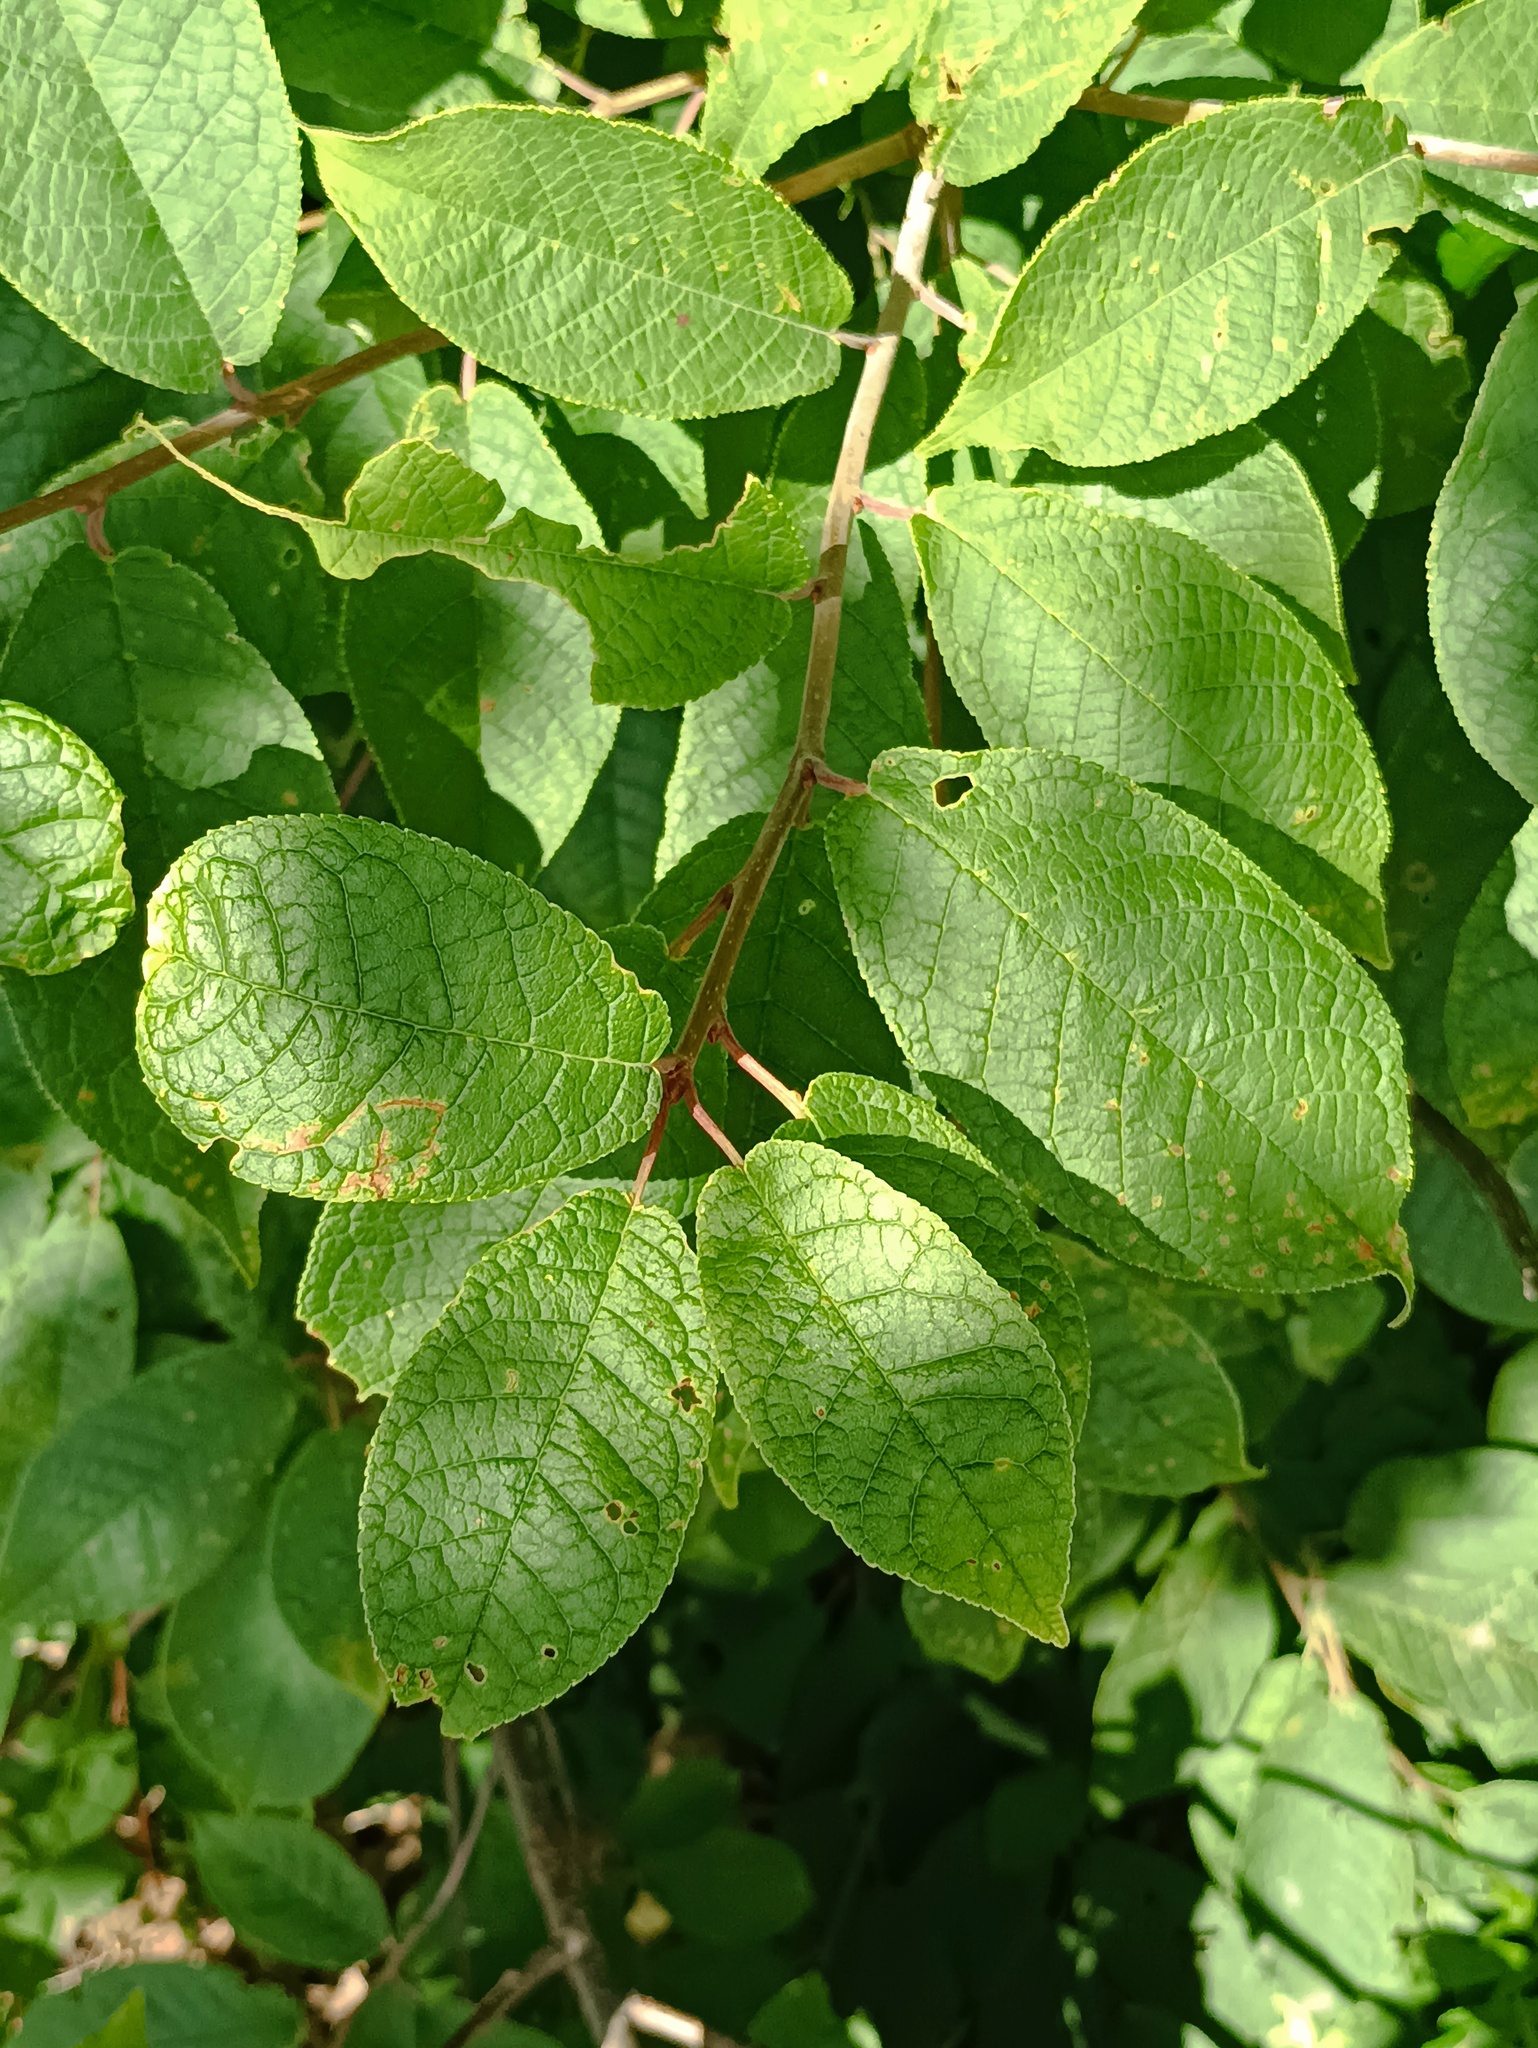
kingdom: Plantae
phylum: Tracheophyta
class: Magnoliopsida
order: Rosales
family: Rosaceae
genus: Prunus
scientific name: Prunus padus
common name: Bird cherry
